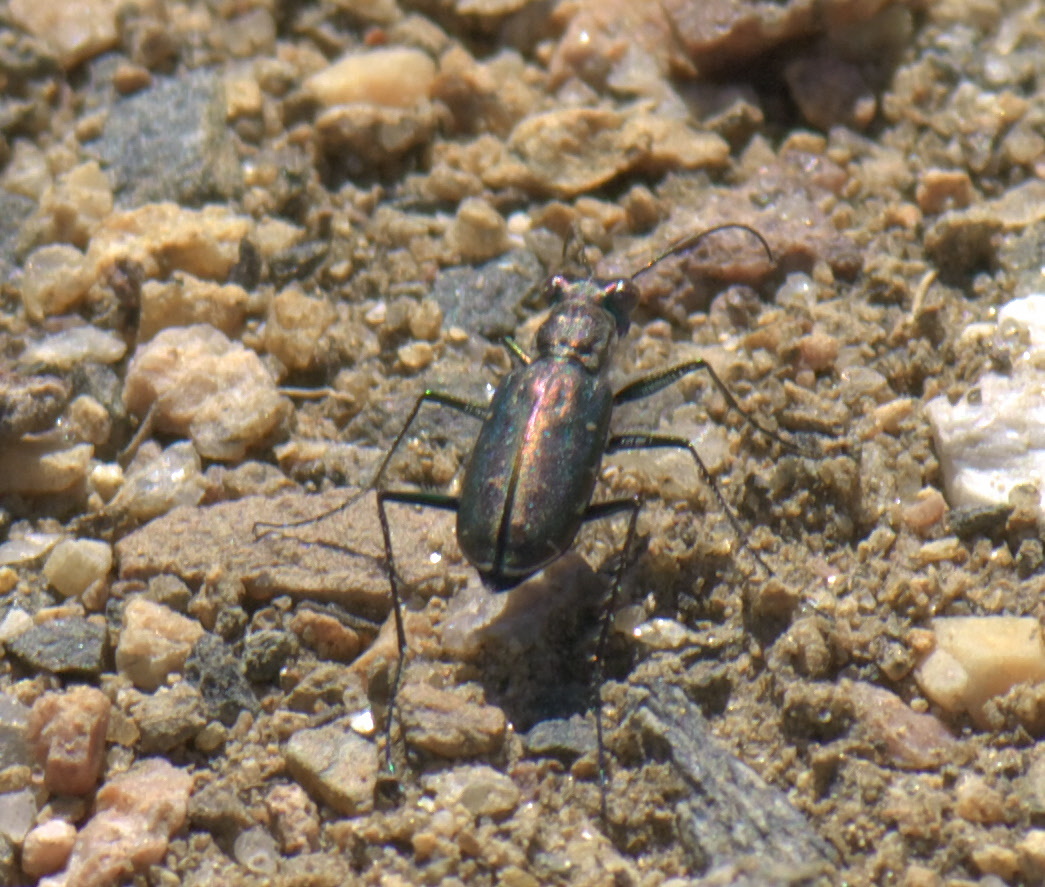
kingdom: Animalia
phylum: Arthropoda
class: Insecta
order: Coleoptera
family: Carabidae
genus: Cicindela
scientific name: Cicindela punctulata
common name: Punctured tiger beetle
